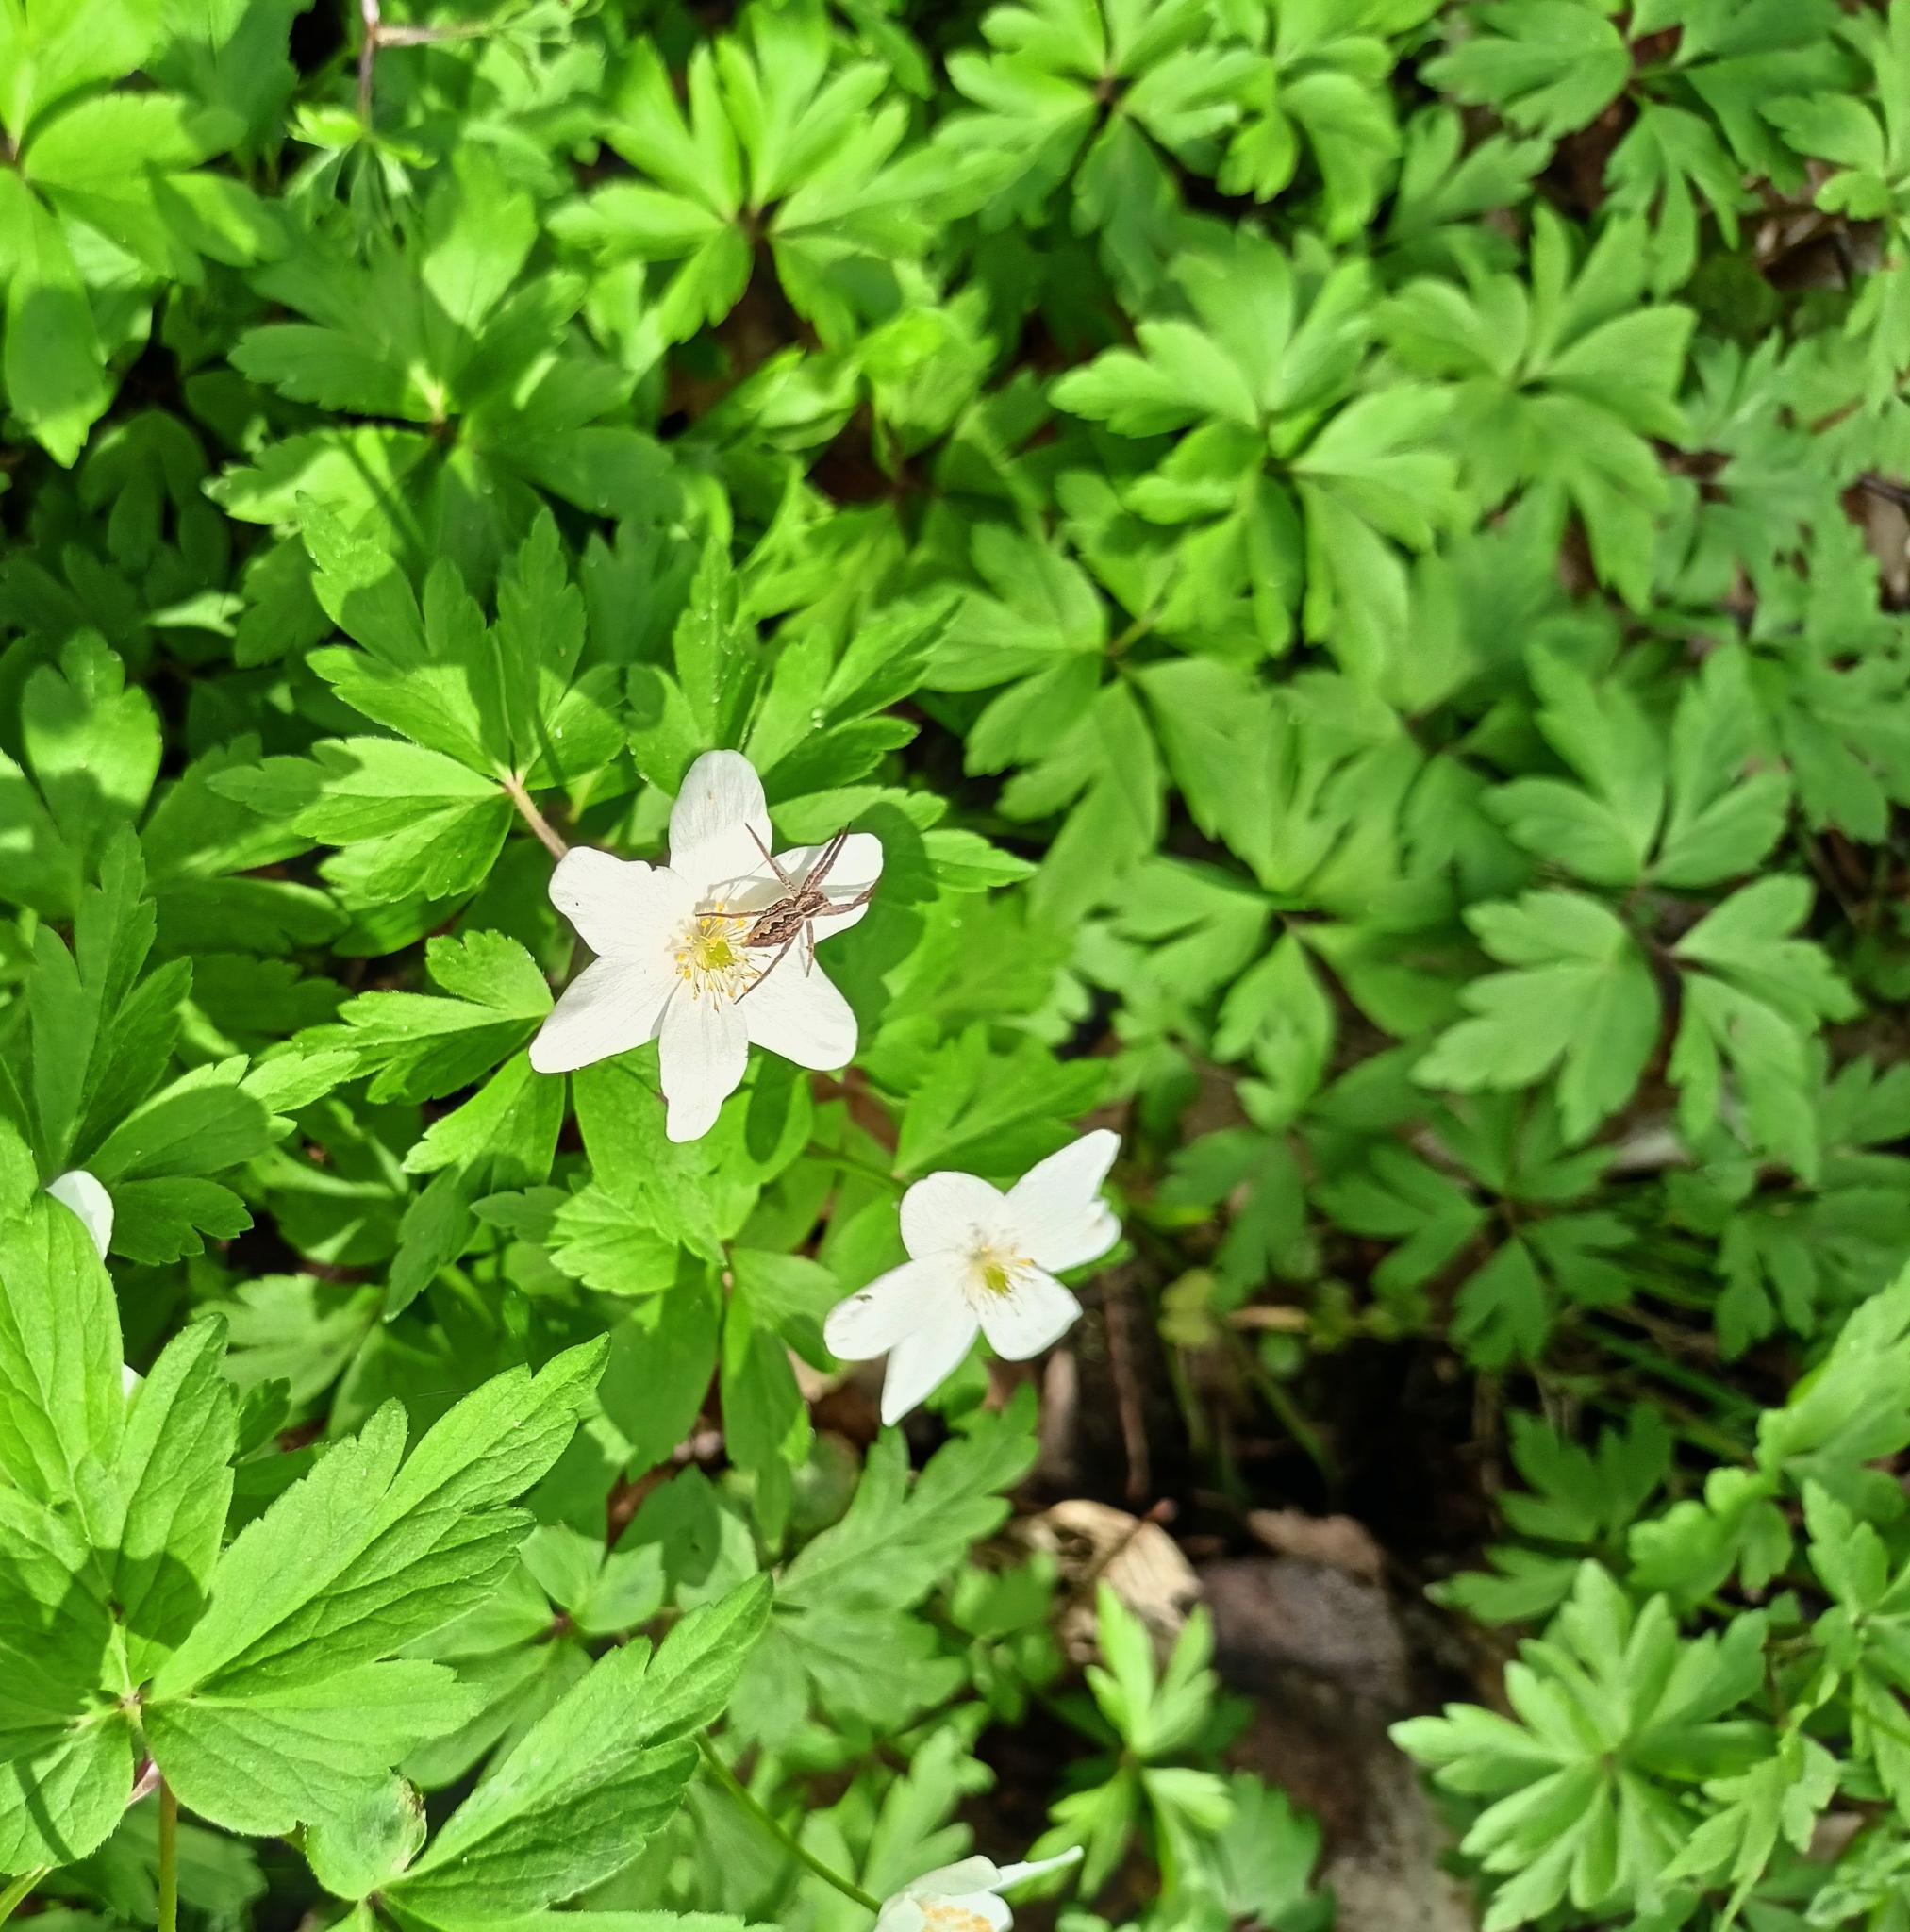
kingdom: Animalia
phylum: Arthropoda
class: Arachnida
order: Araneae
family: Pisauridae
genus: Pisaura
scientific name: Pisaura mirabilis
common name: Tent spider
